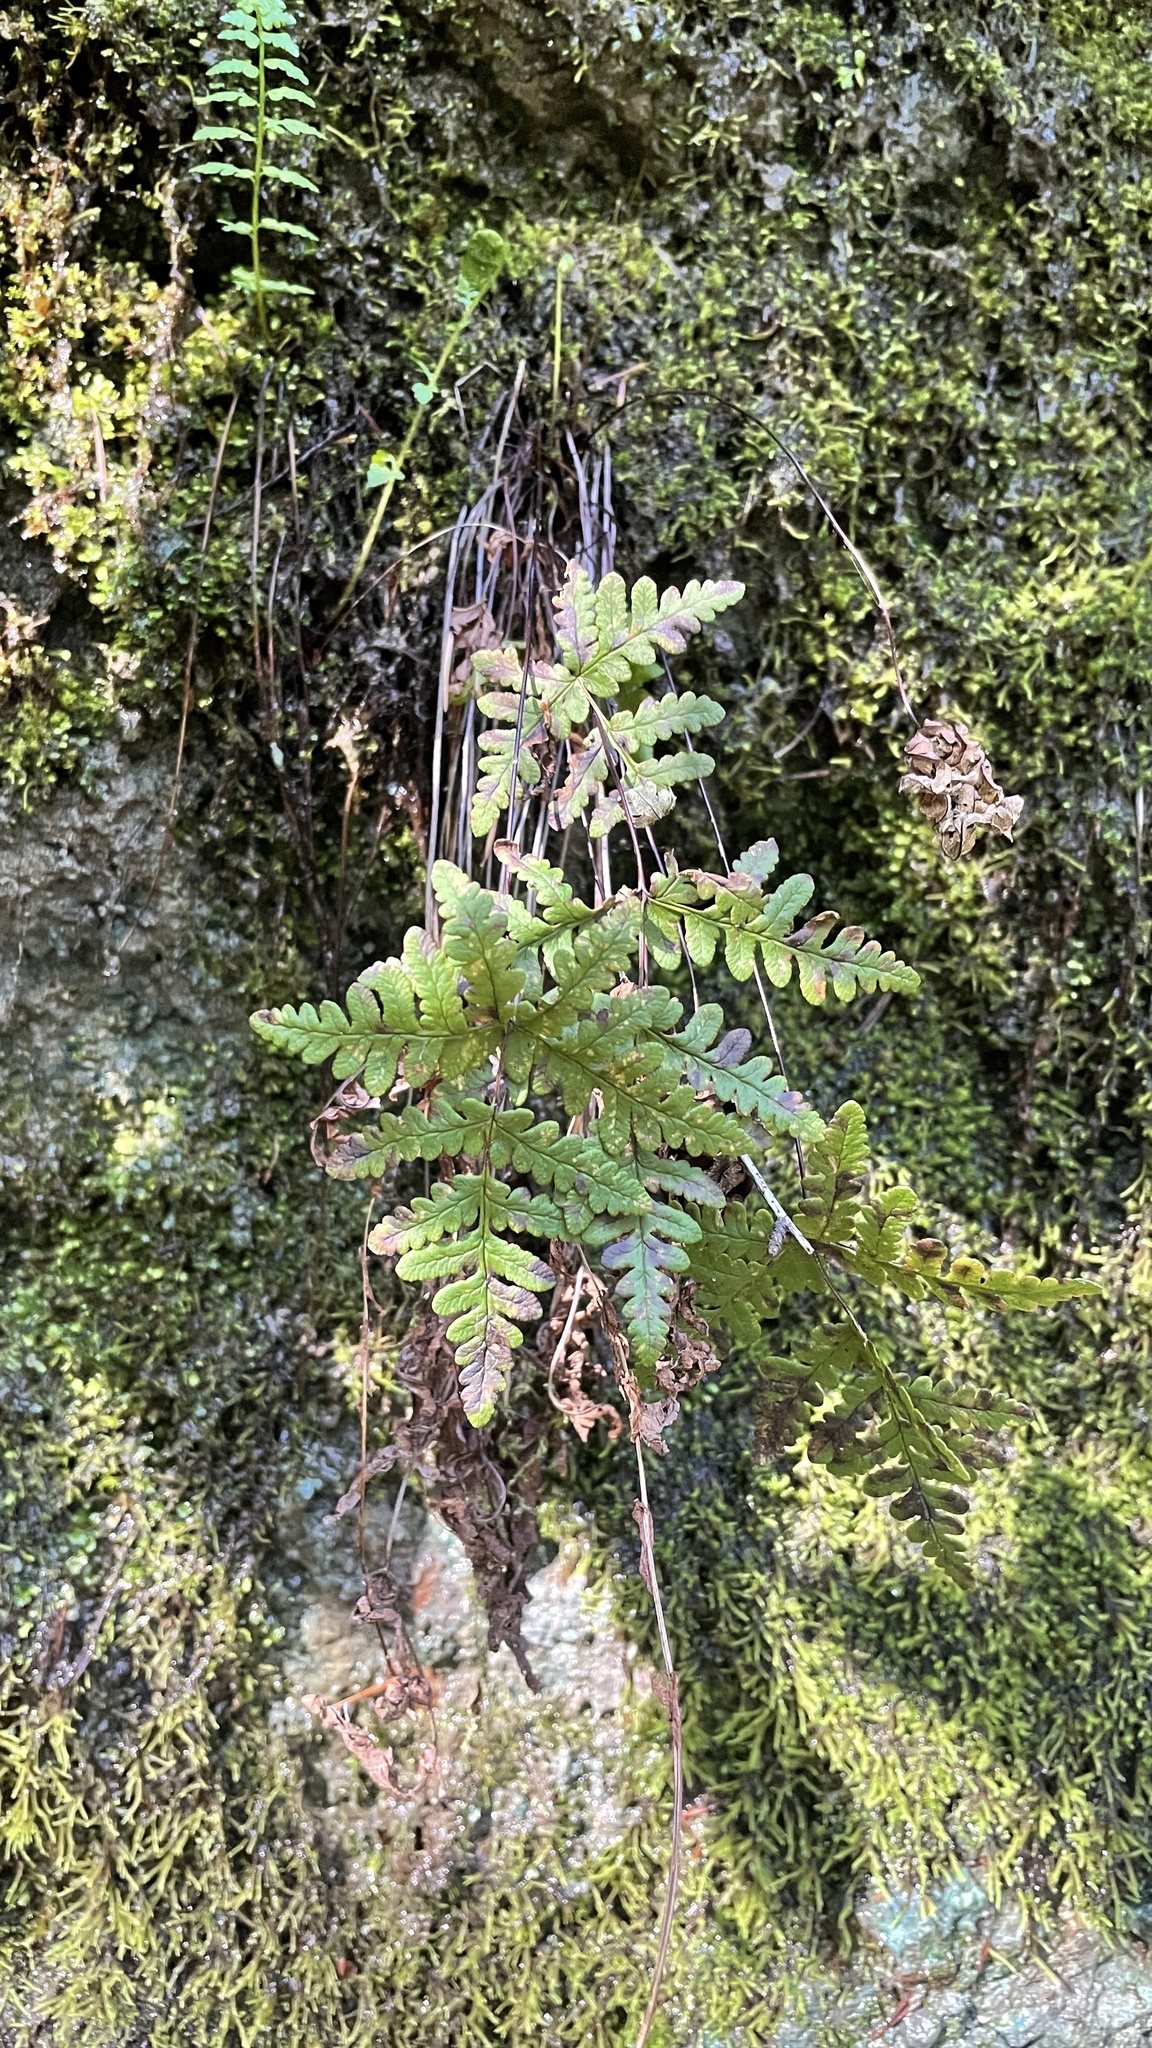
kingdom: Plantae
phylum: Tracheophyta
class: Polypodiopsida
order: Polypodiales
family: Pteridaceae
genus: Pentagramma
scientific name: Pentagramma triangularis
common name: Gold fern
